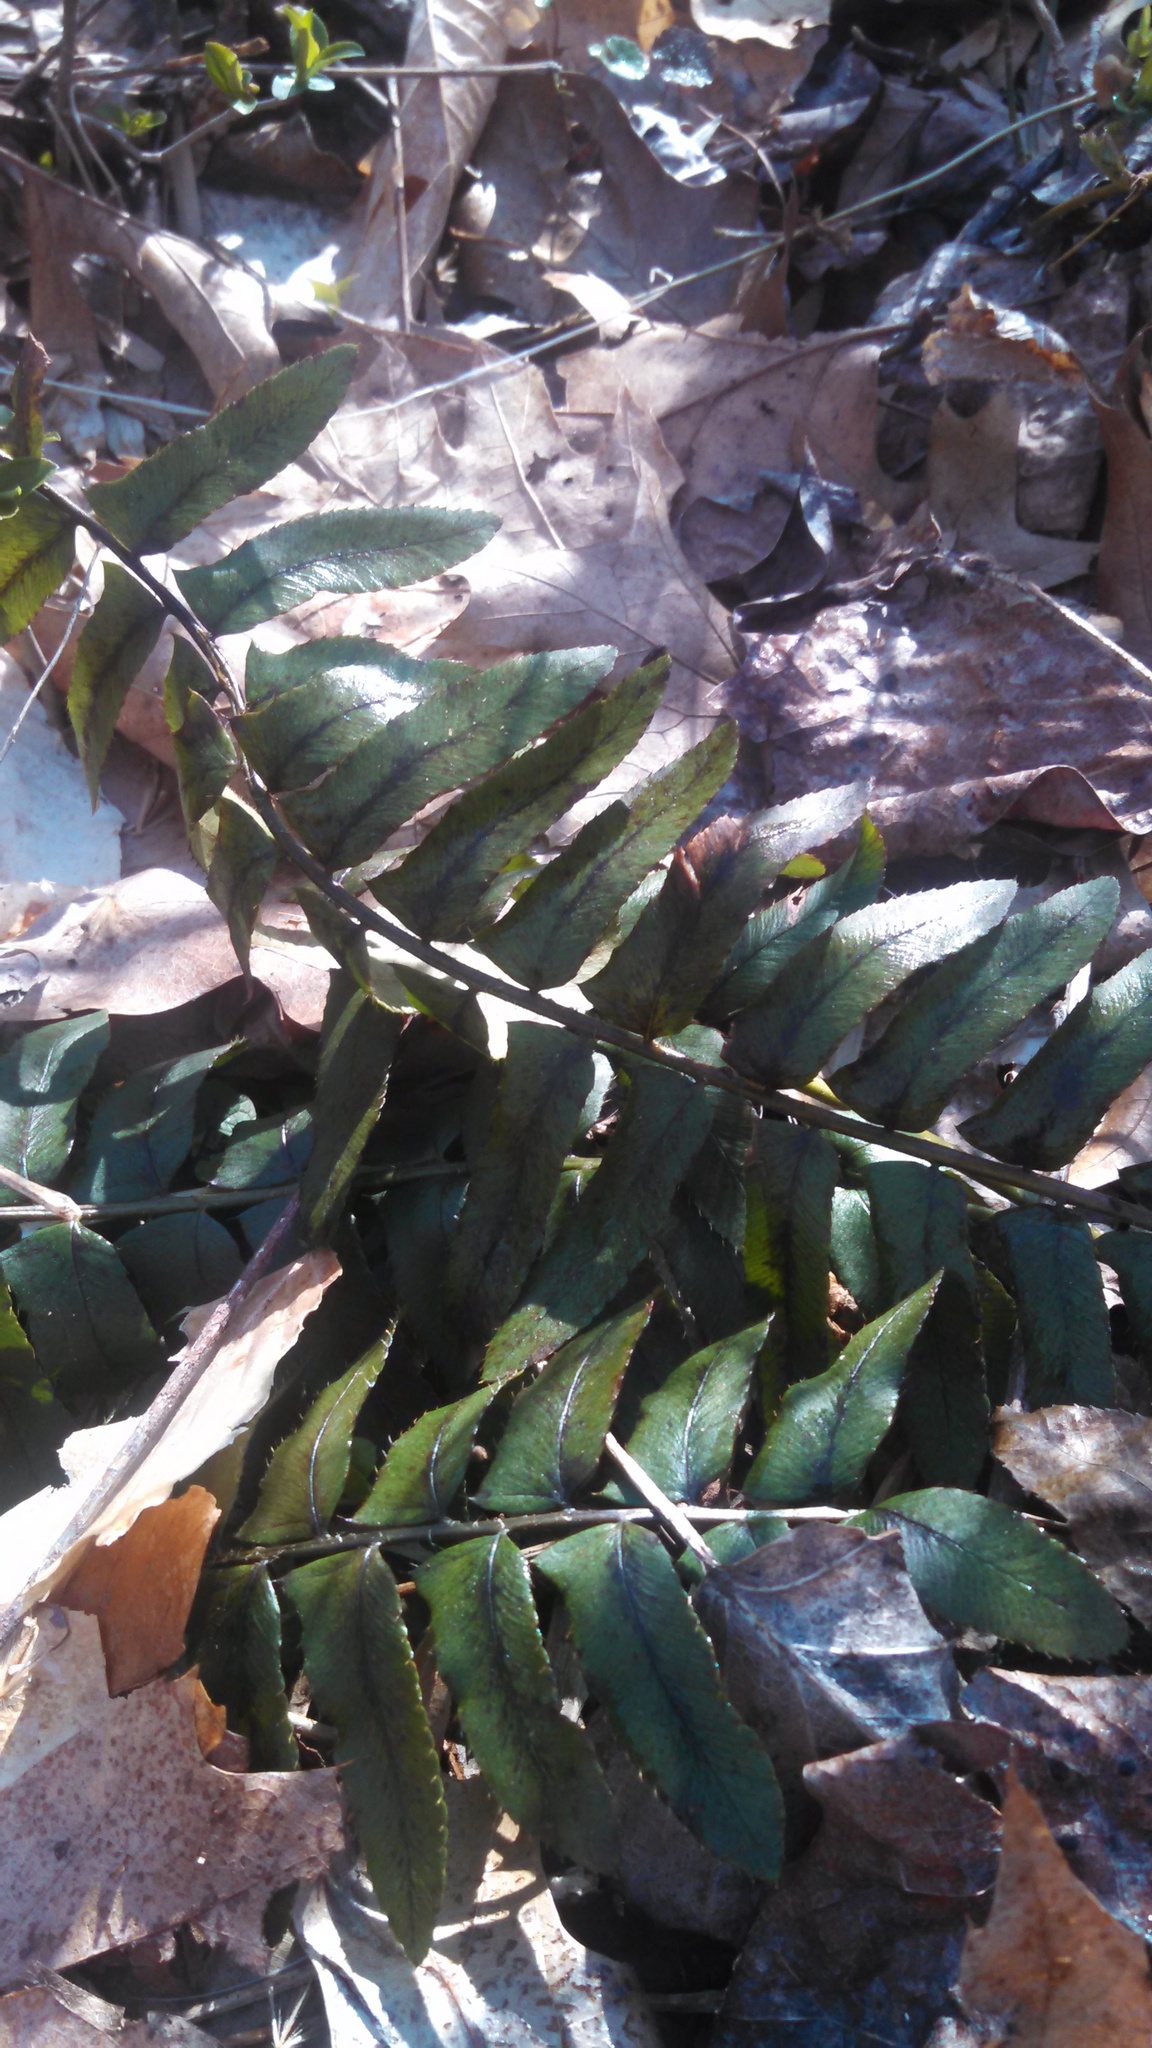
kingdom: Plantae
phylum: Tracheophyta
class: Polypodiopsida
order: Polypodiales
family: Dryopteridaceae
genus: Polystichum
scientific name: Polystichum acrostichoides
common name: Christmas fern
